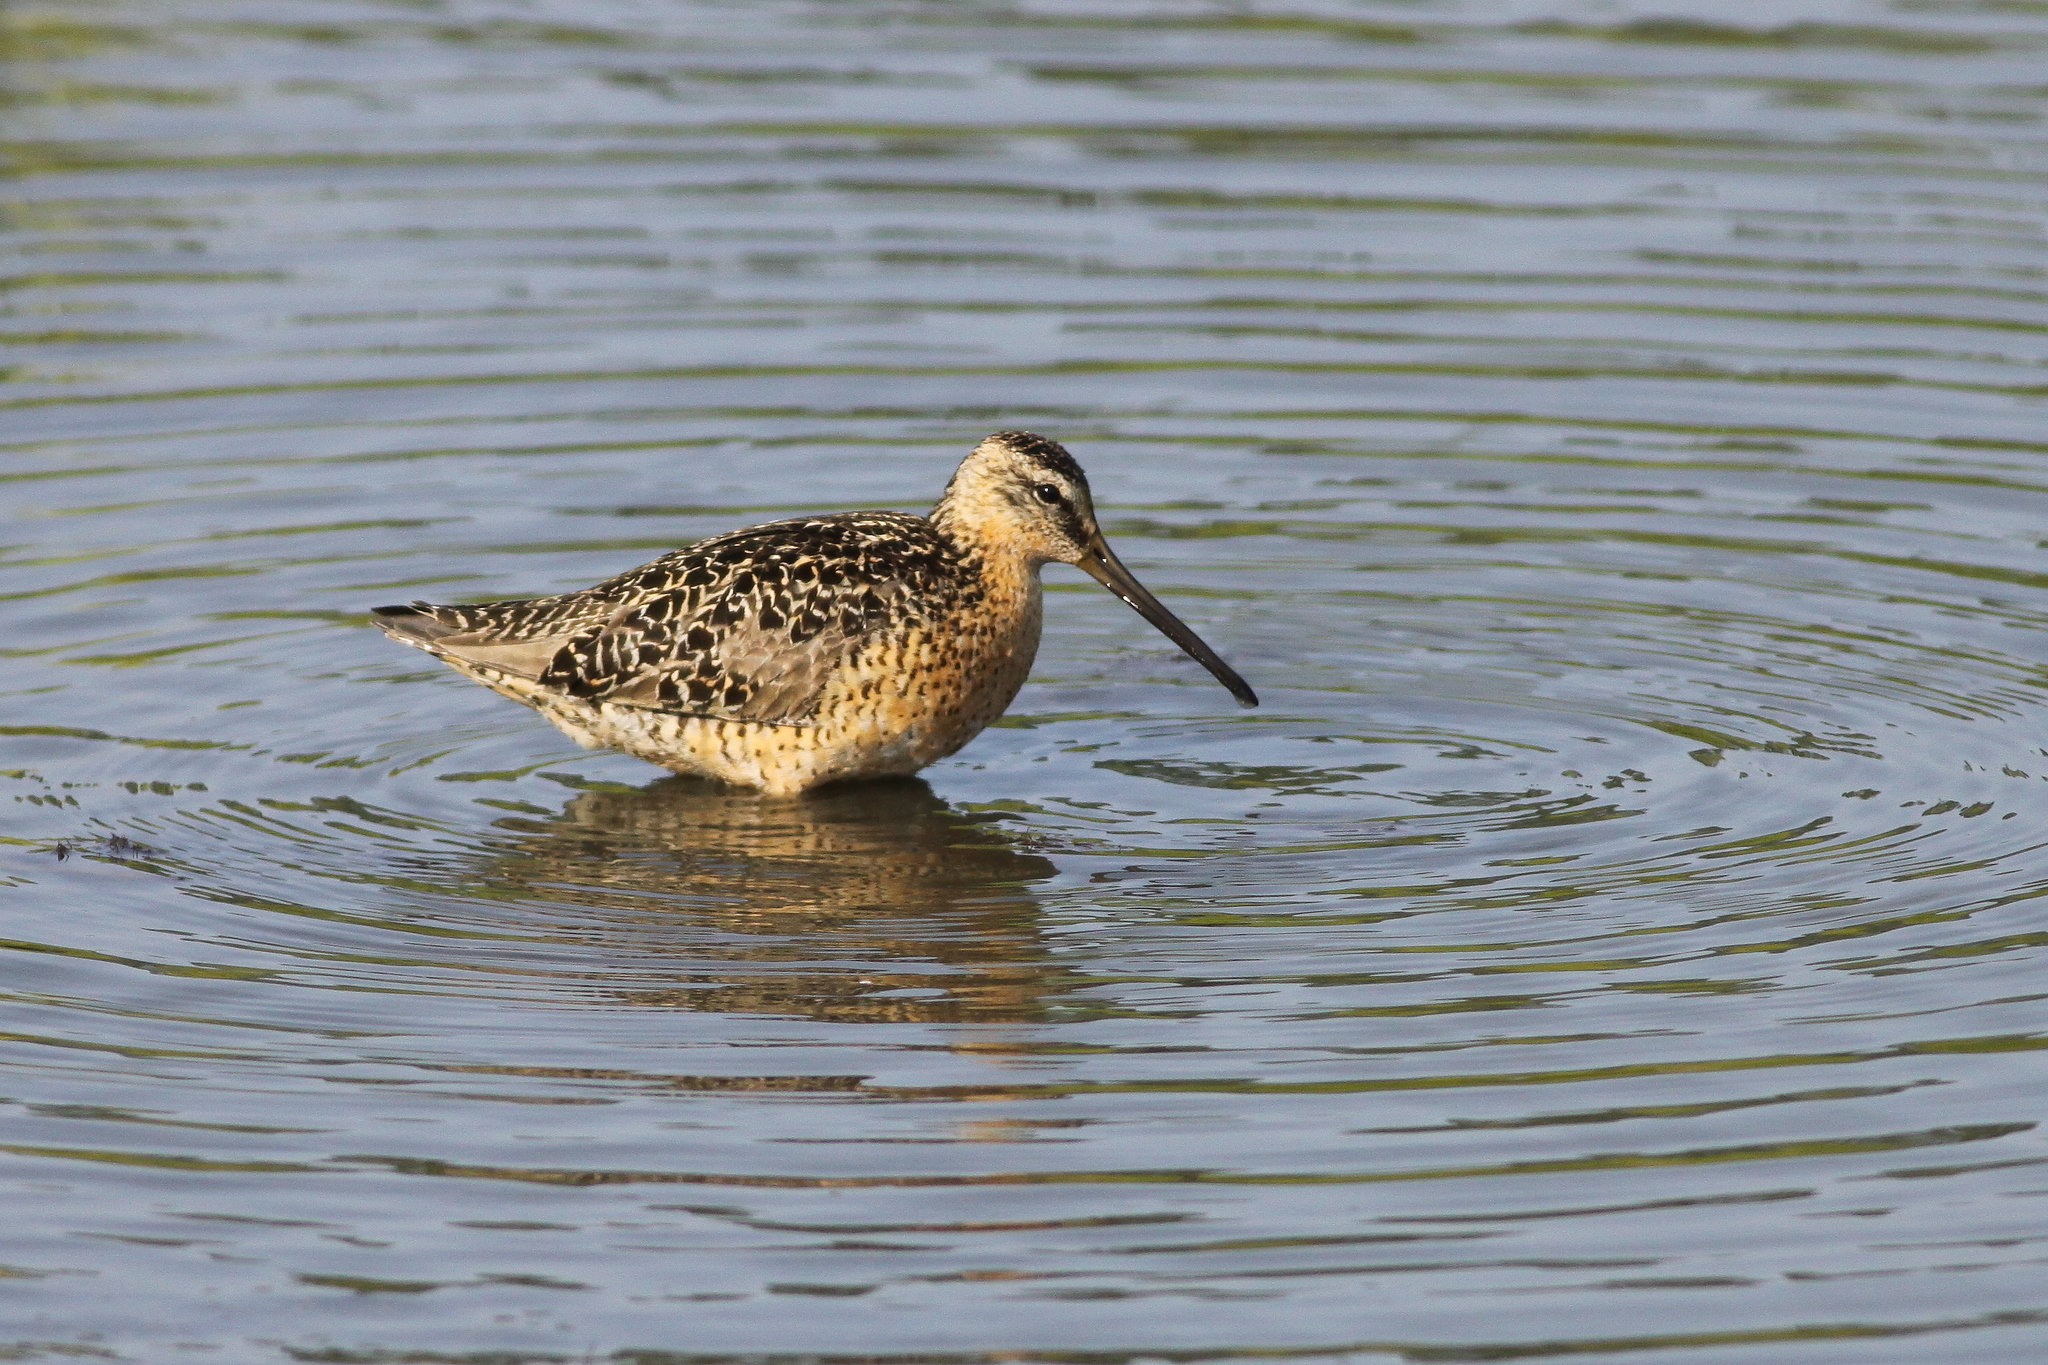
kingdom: Animalia
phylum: Chordata
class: Aves
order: Charadriiformes
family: Scolopacidae
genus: Limnodromus
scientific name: Limnodromus griseus
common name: Short-billed dowitcher
